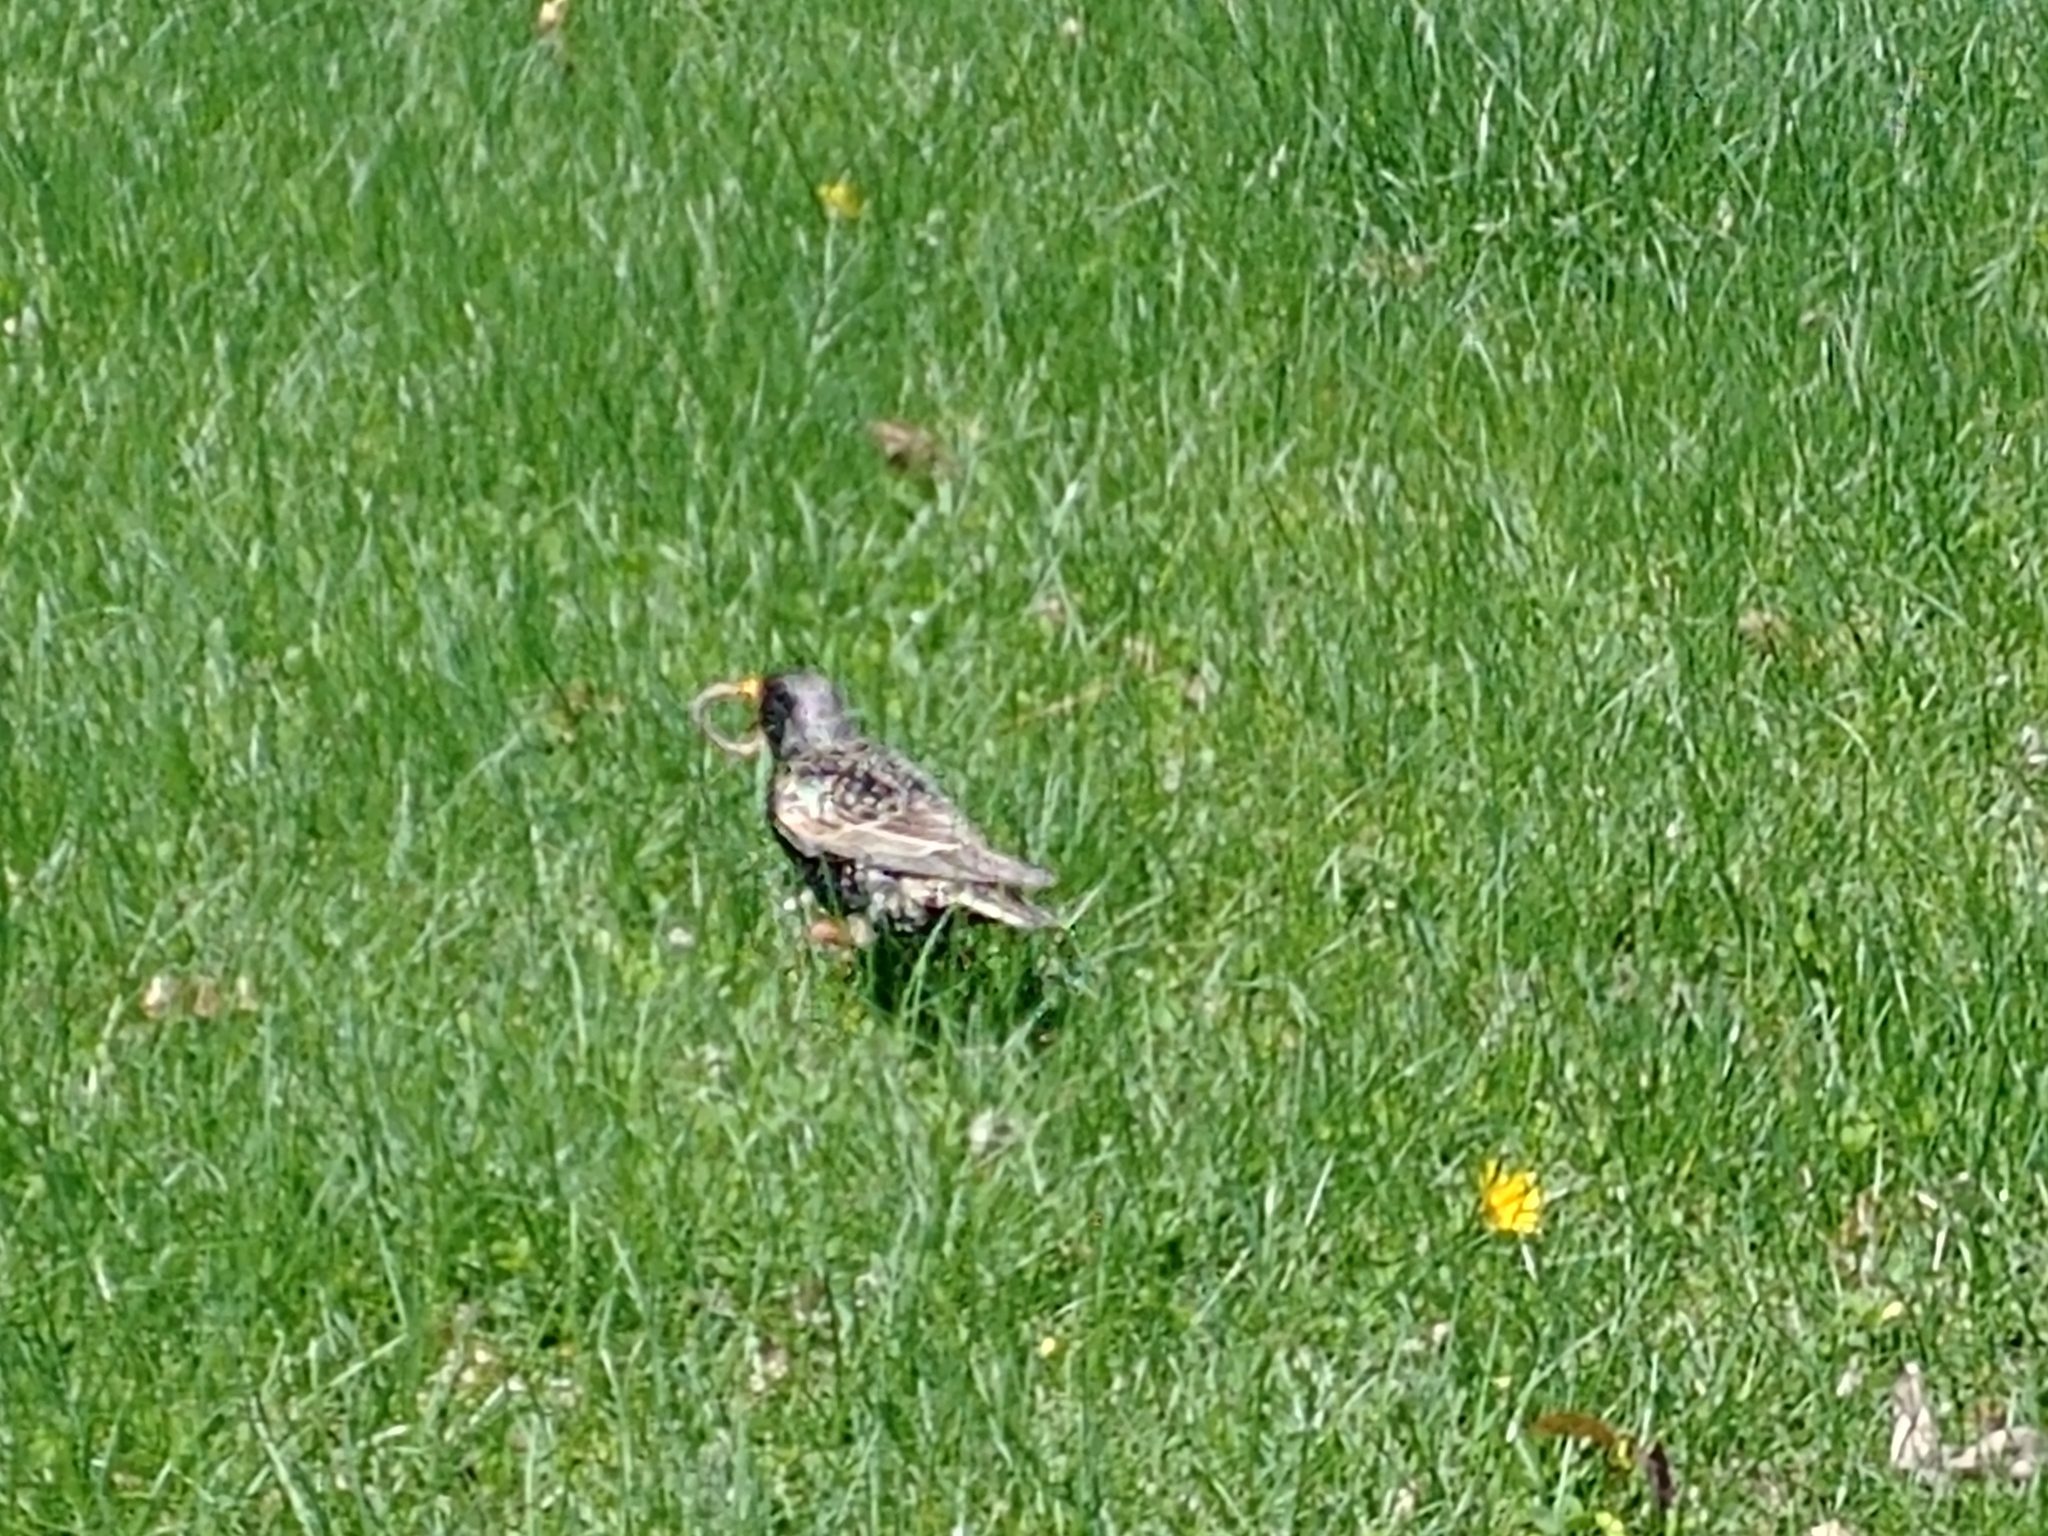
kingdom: Animalia
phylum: Chordata
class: Aves
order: Passeriformes
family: Sturnidae
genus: Sturnus
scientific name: Sturnus vulgaris
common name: Common starling
